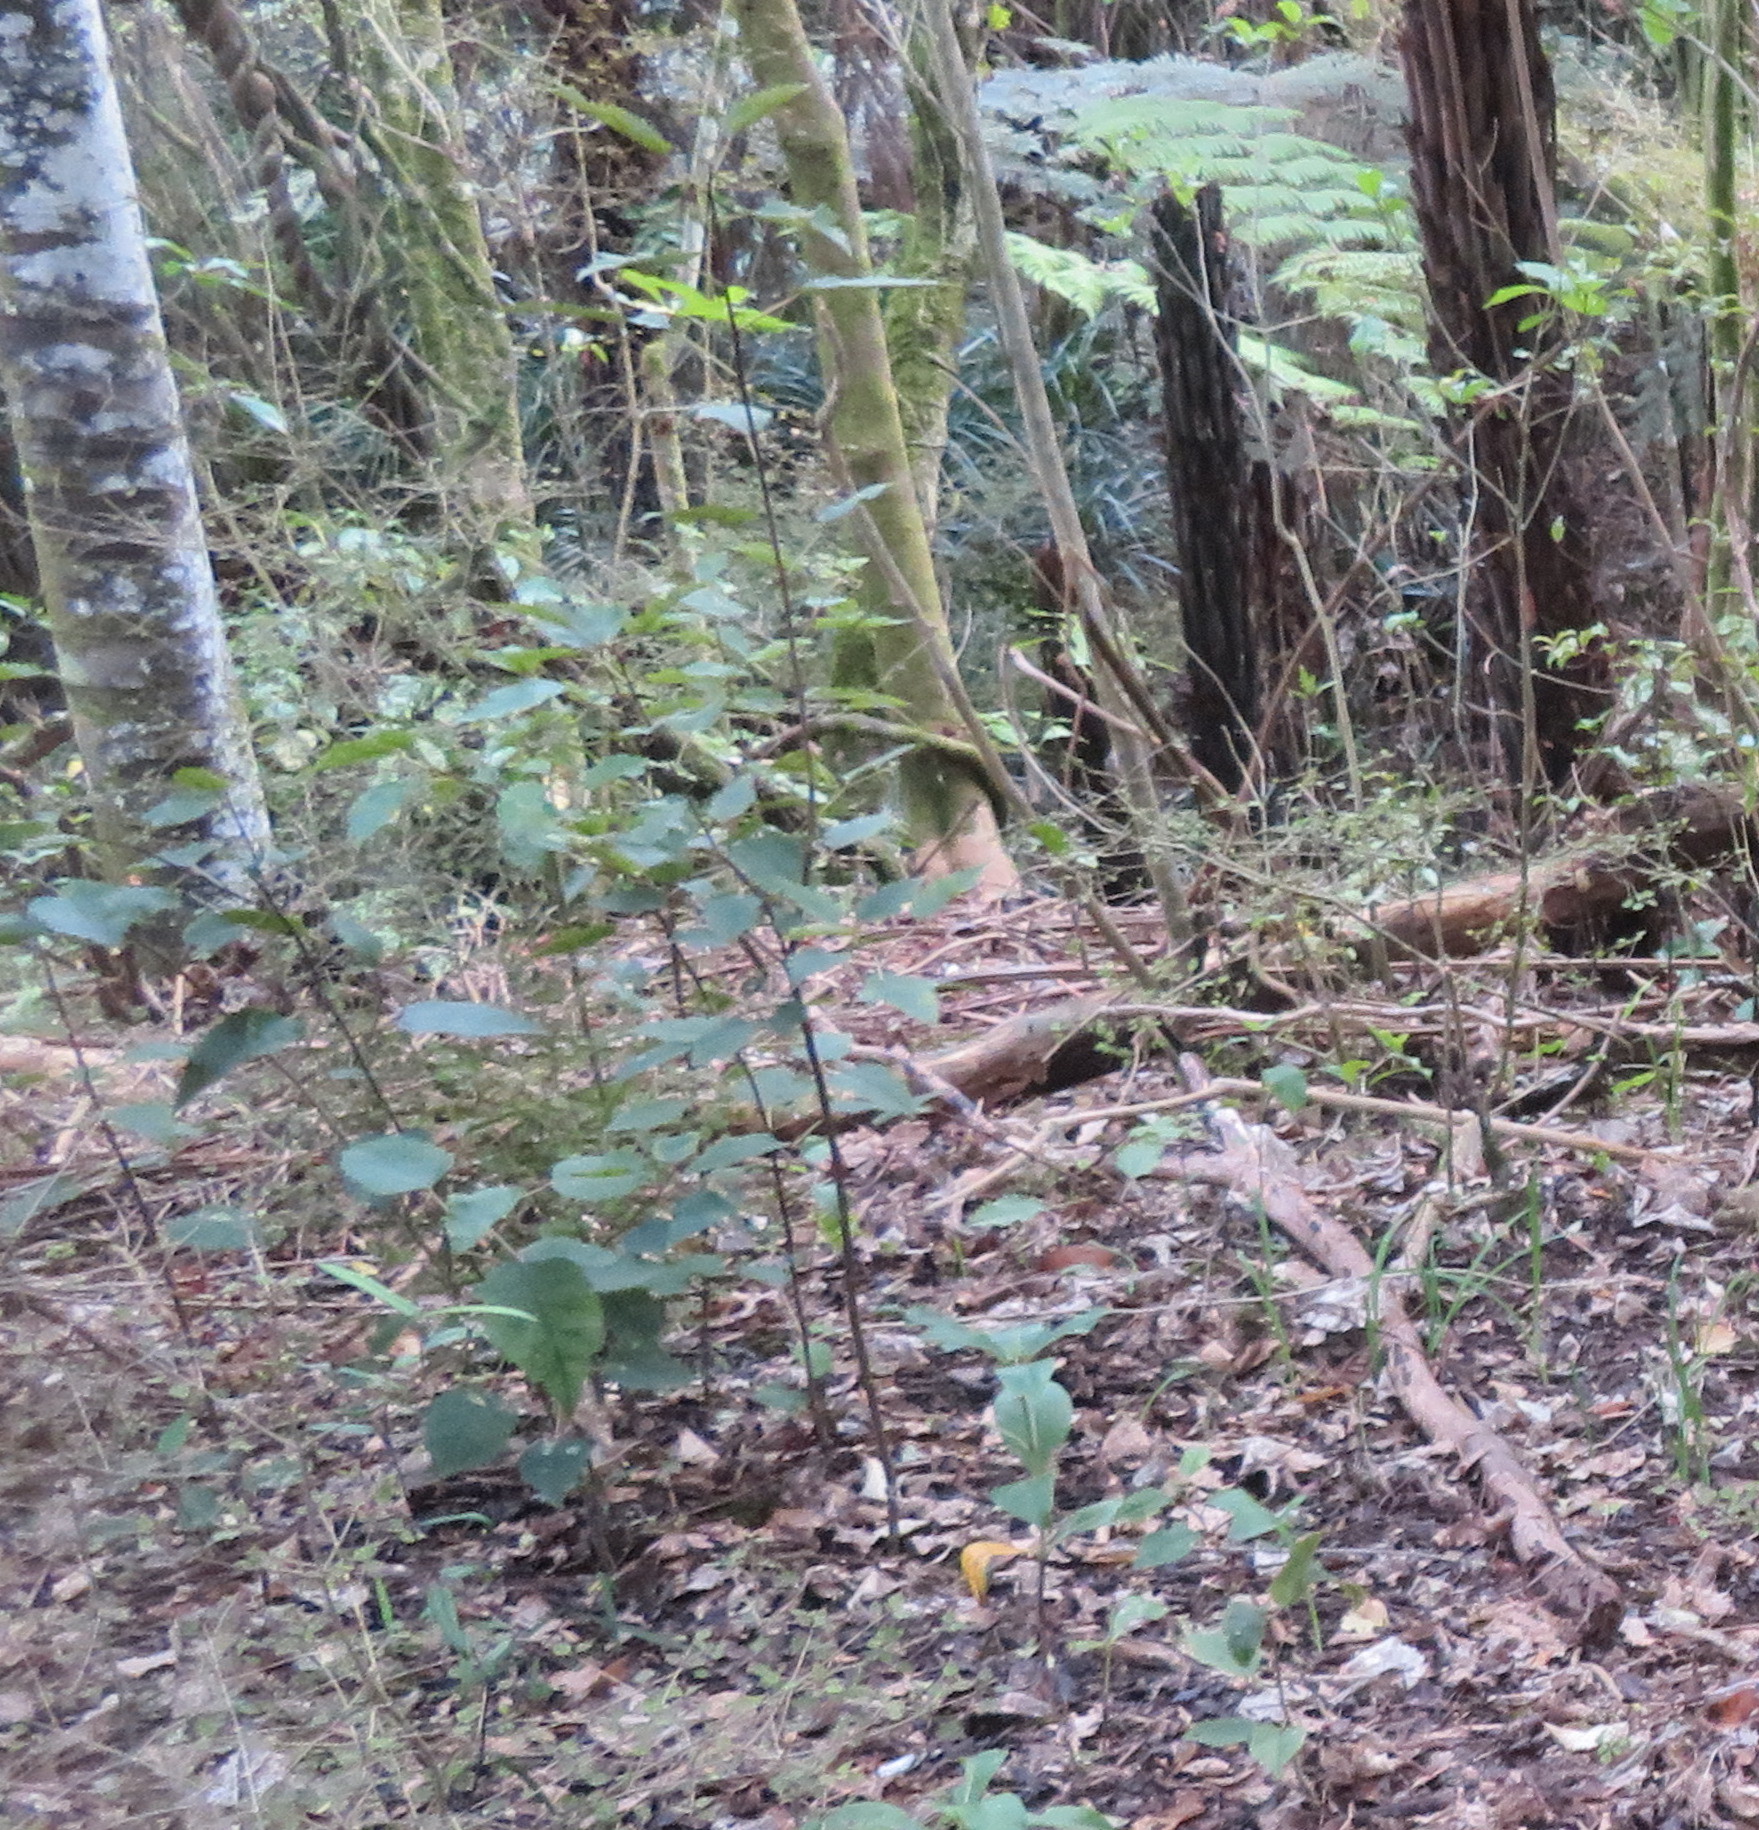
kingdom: Plantae
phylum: Tracheophyta
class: Magnoliopsida
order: Malvales
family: Malvaceae
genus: Hoheria
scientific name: Hoheria populnea
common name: Lacebark
